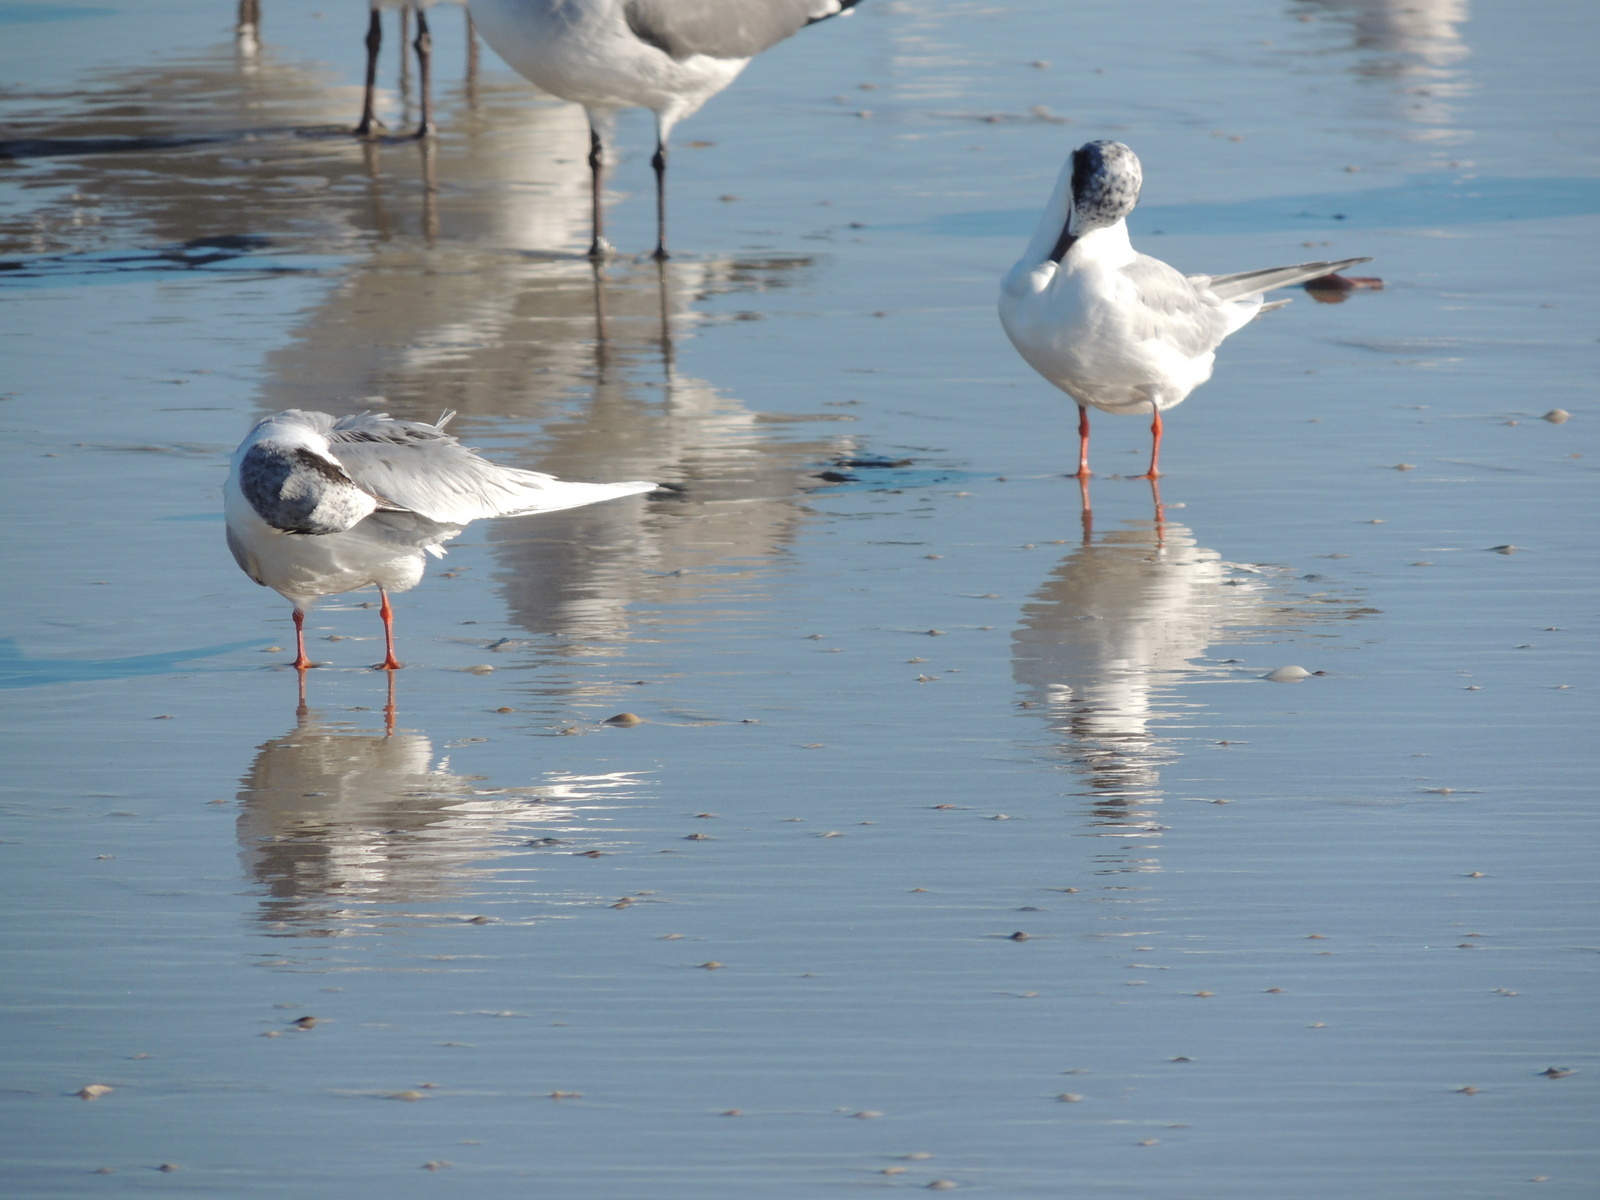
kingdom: Animalia
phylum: Chordata
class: Aves
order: Charadriiformes
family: Laridae
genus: Sterna
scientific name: Sterna forsteri
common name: Forster's tern
